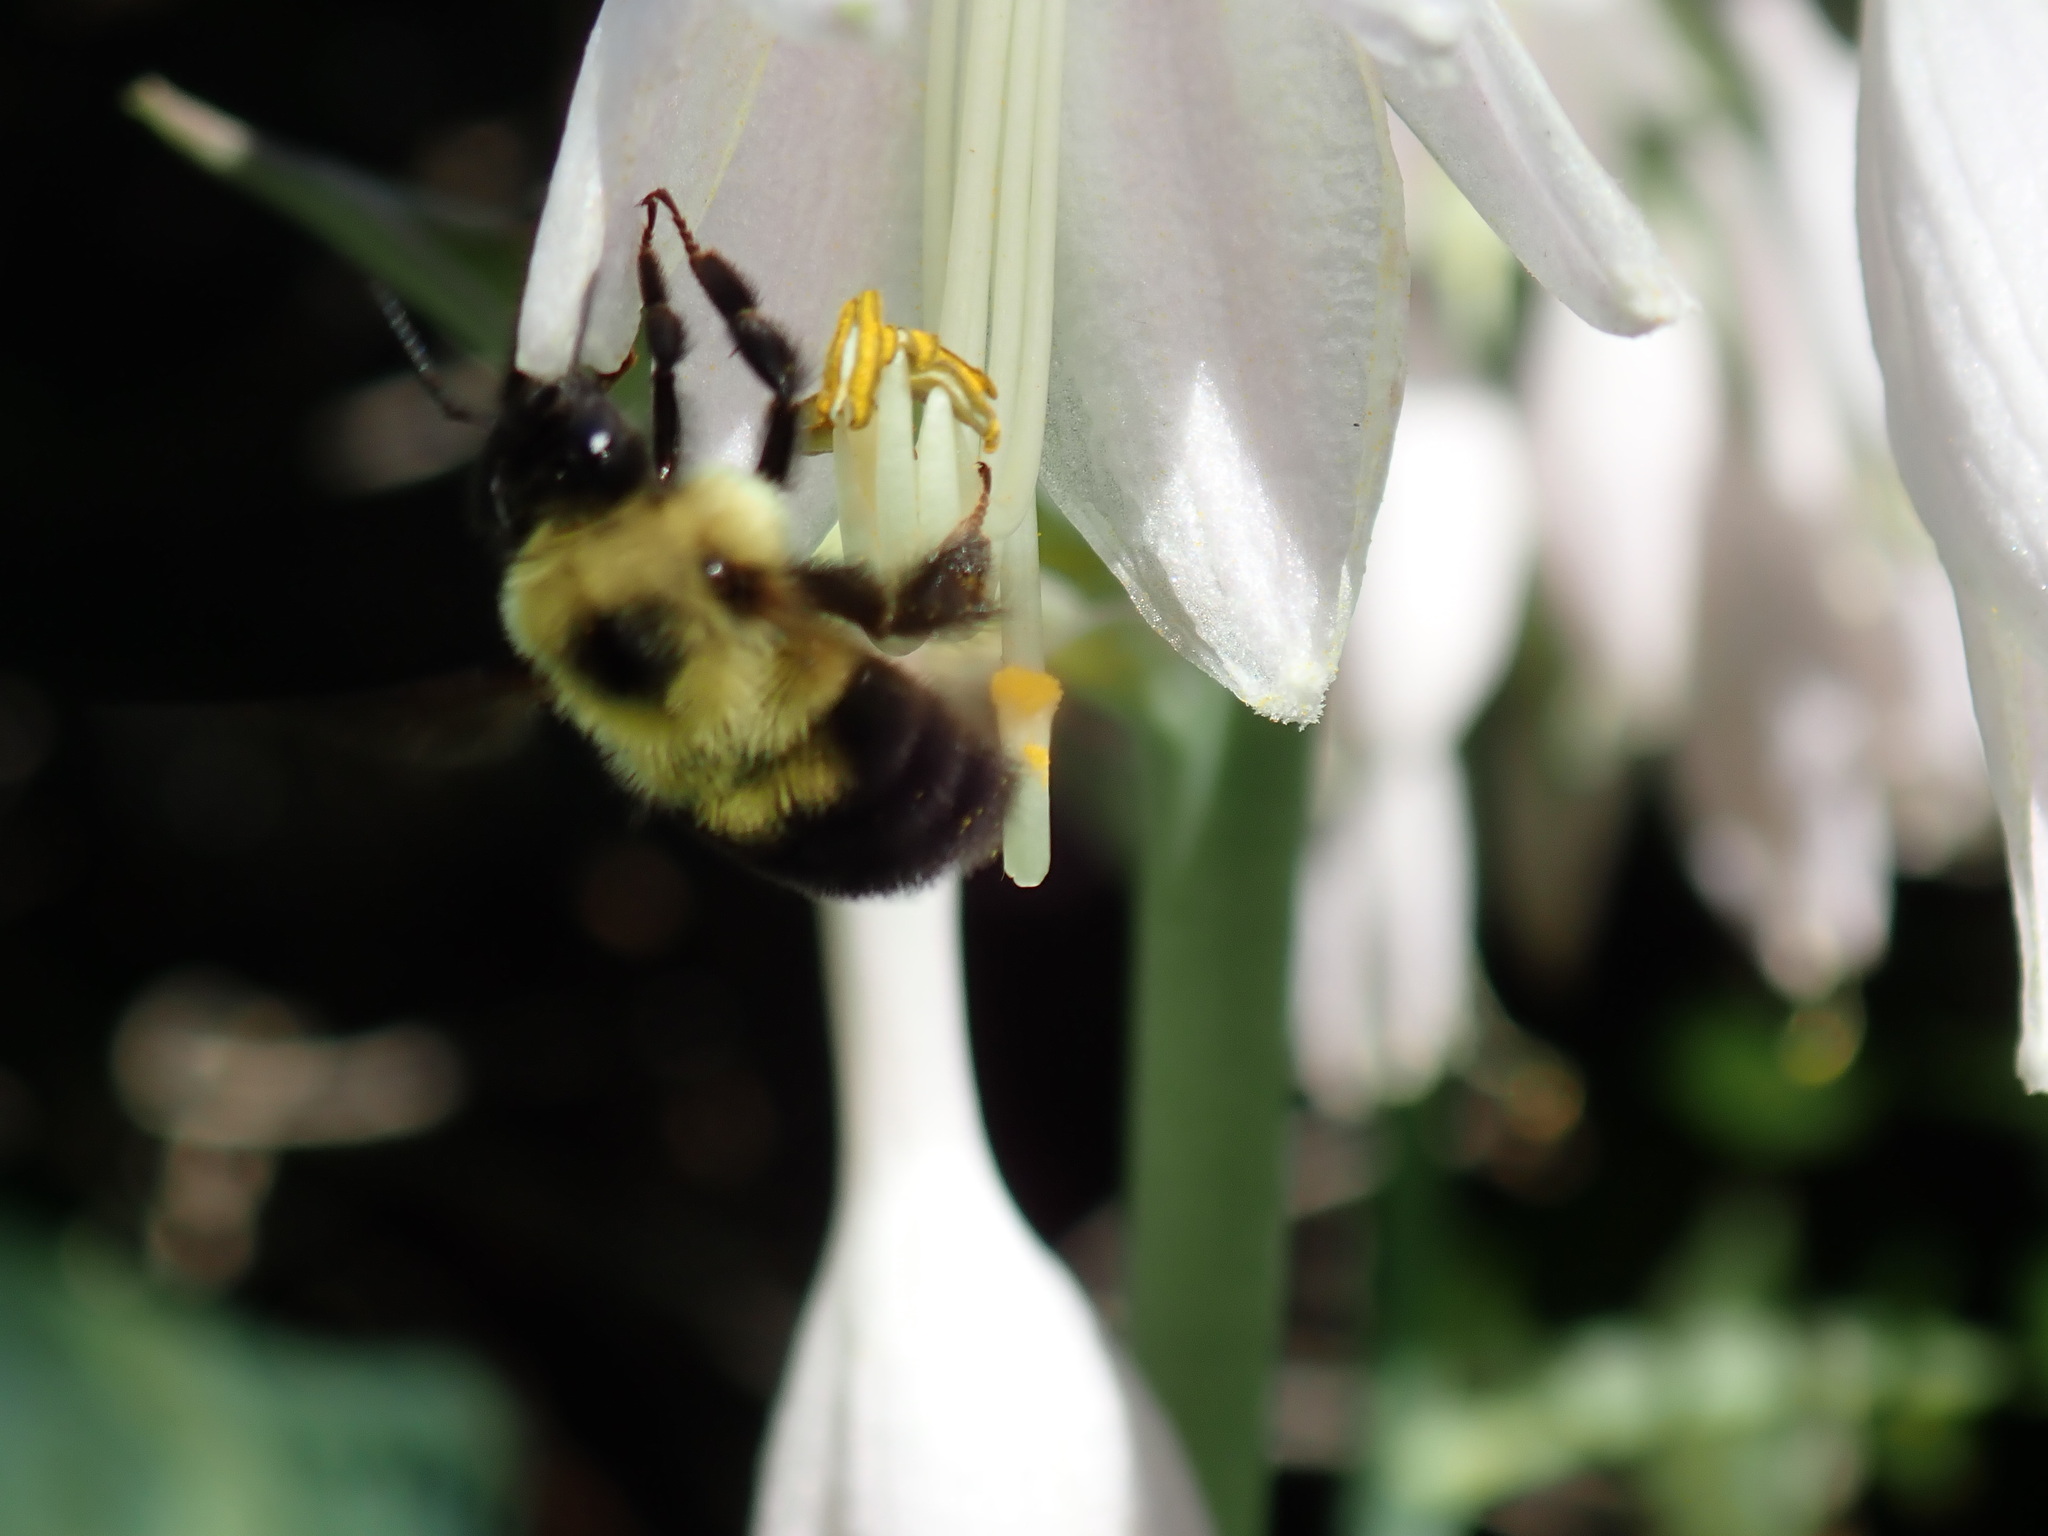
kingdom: Animalia
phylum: Arthropoda
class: Insecta
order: Hymenoptera
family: Apidae
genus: Bombus
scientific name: Bombus bimaculatus
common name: Two-spotted bumble bee
